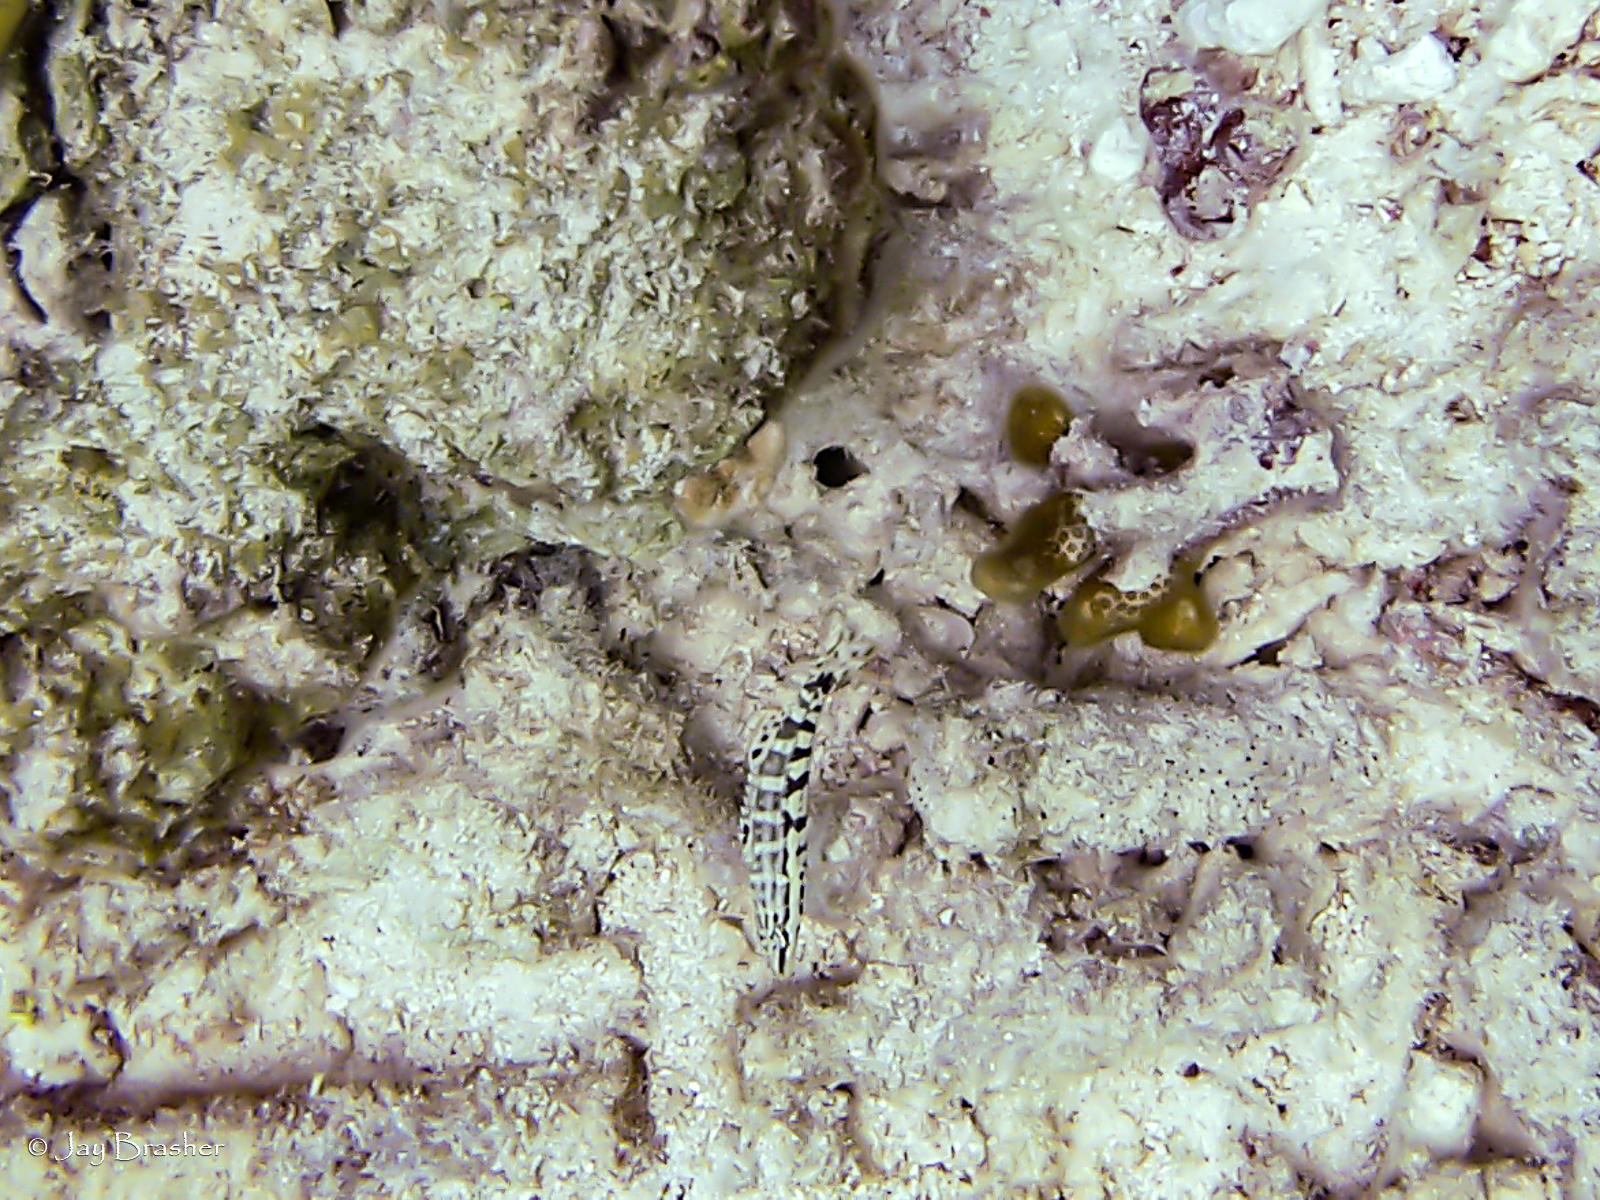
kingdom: Animalia
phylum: Chordata
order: Perciformes
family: Serranidae
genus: Serranus
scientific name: Serranus tigrinus
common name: Harlequin bass
